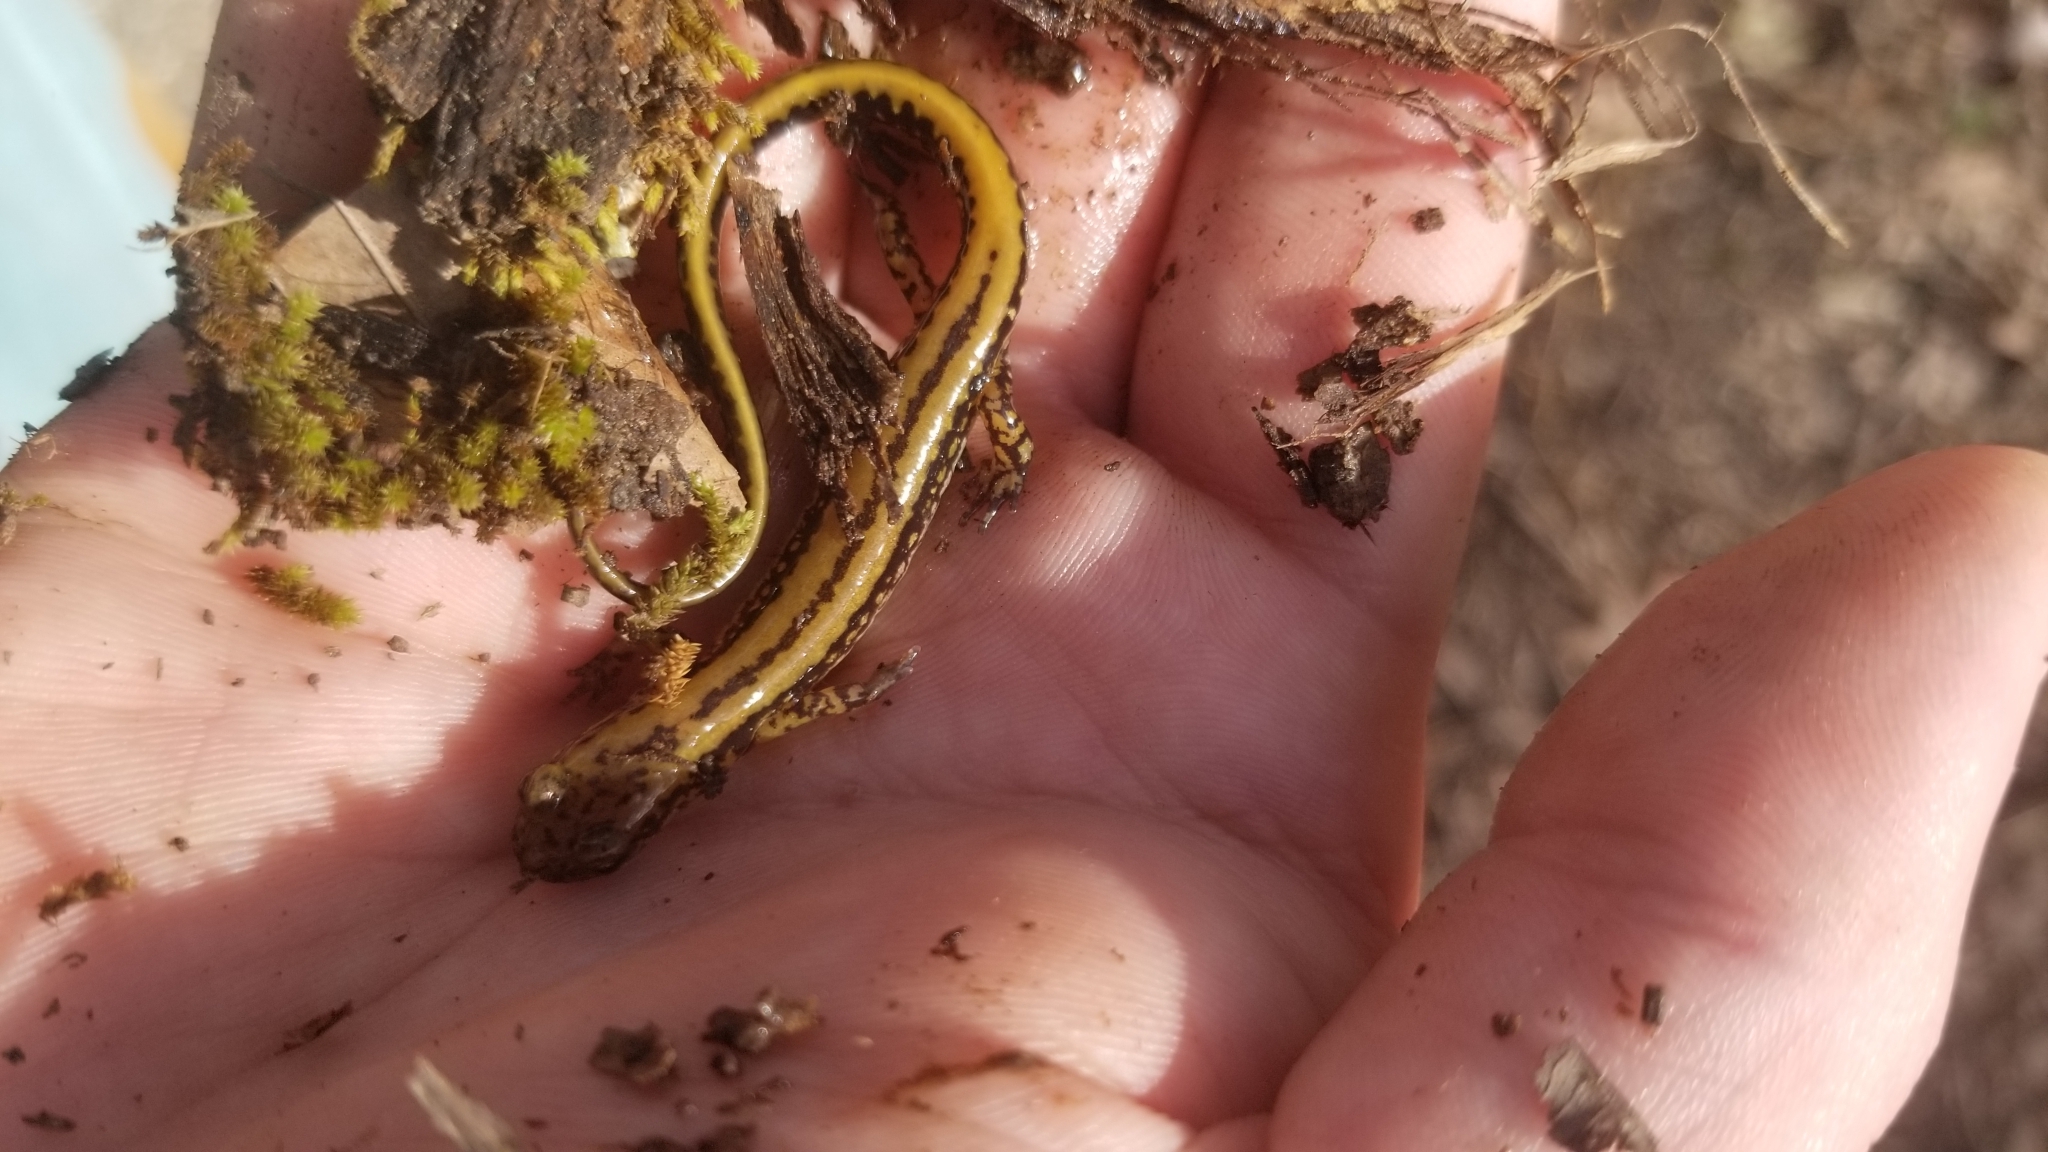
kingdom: Animalia
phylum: Chordata
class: Amphibia
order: Caudata
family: Plethodontidae
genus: Eurycea
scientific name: Eurycea guttolineata
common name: Three-lined salamander
